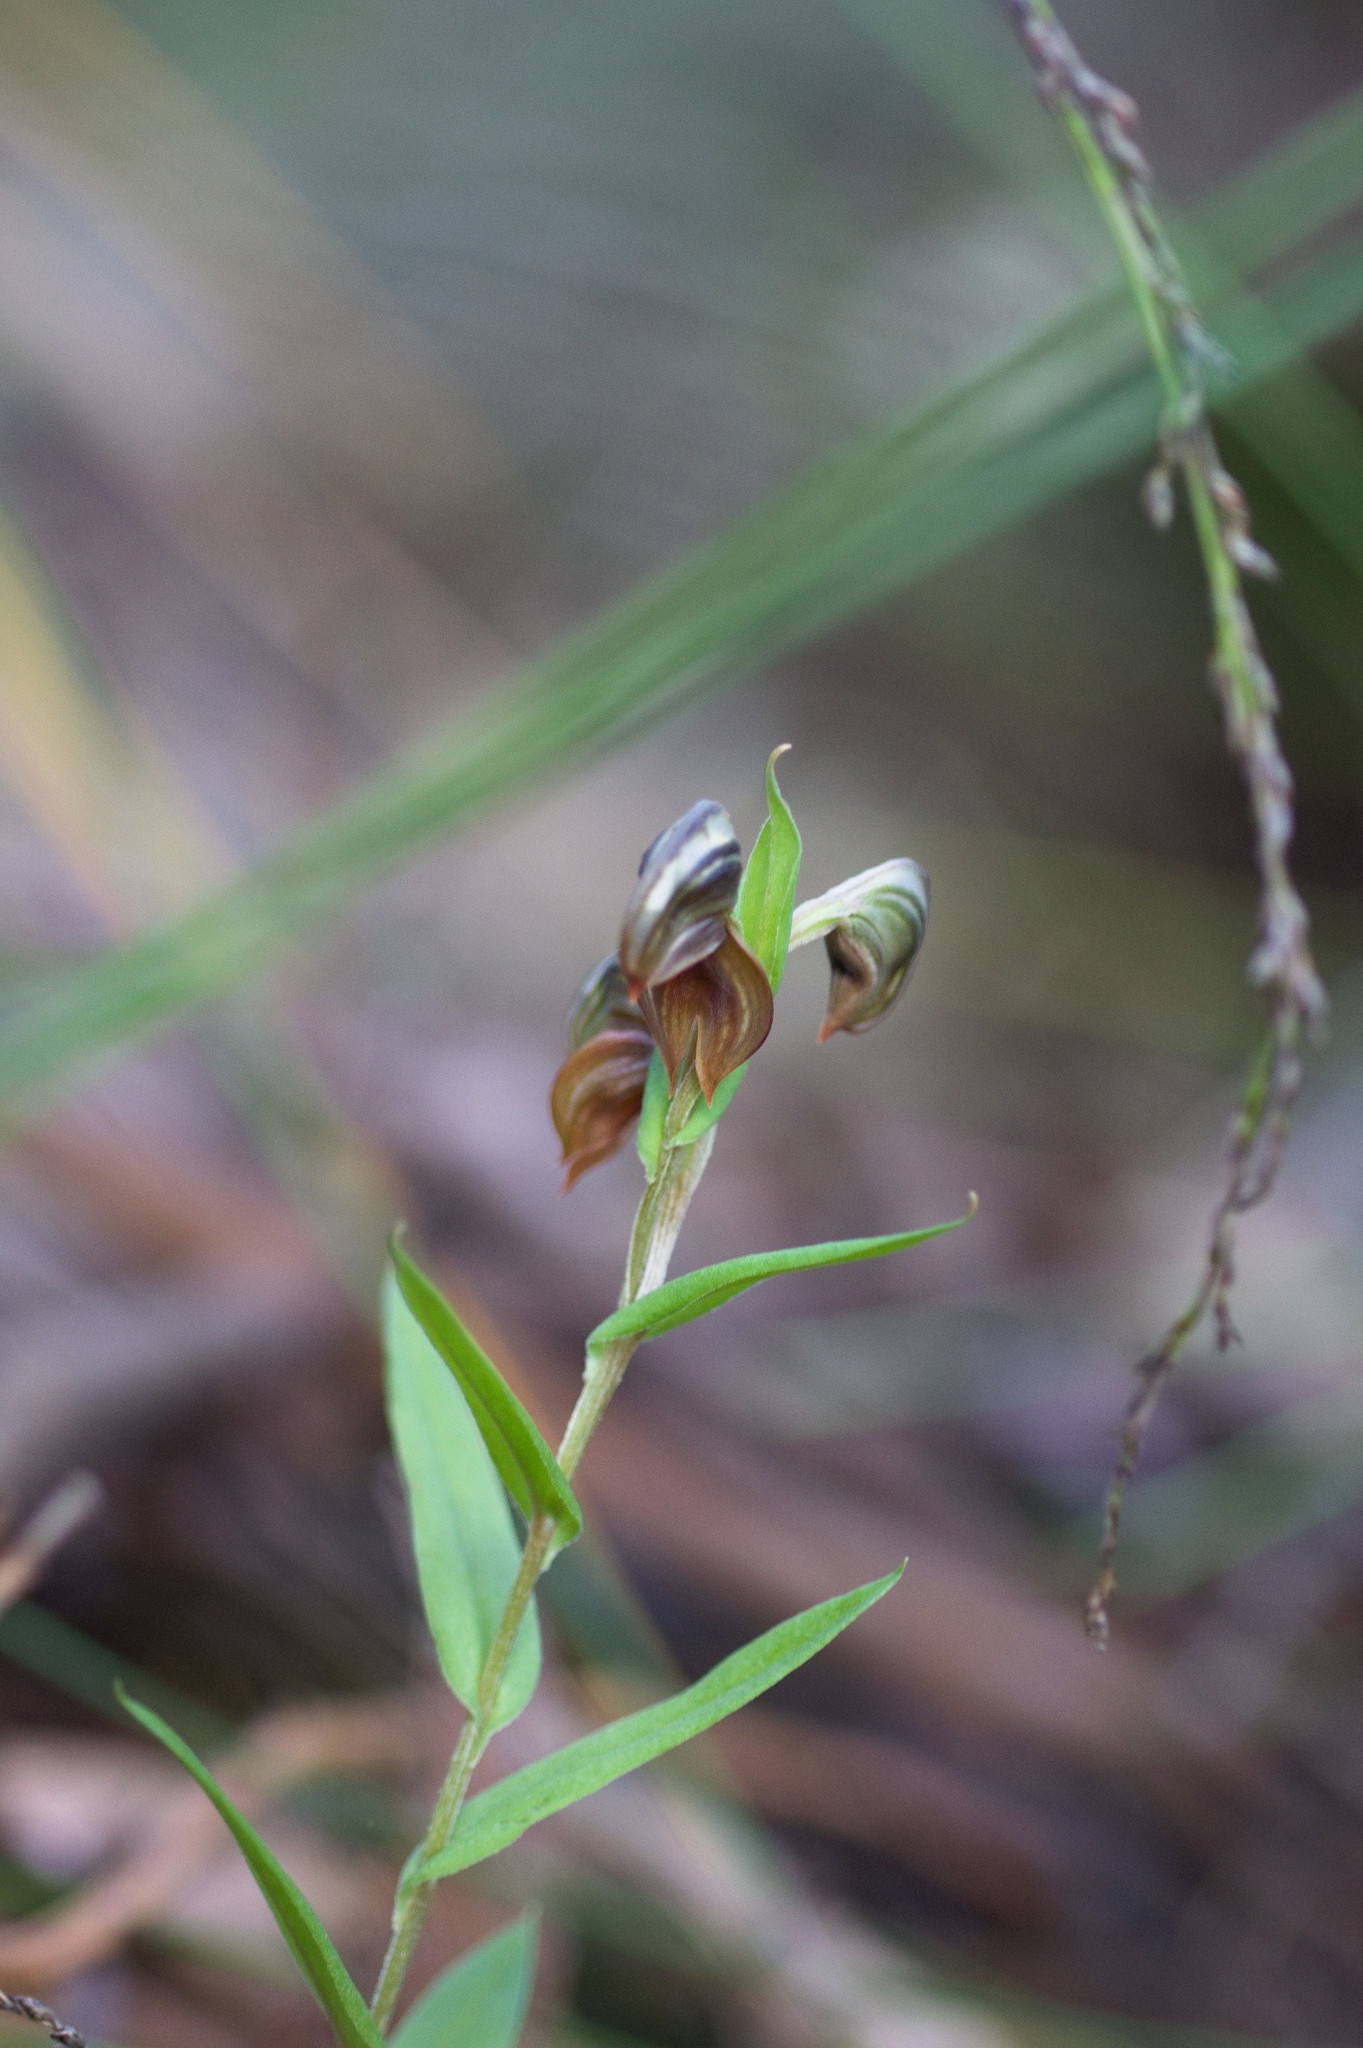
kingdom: Plantae
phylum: Tracheophyta
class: Liliopsida
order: Asparagales
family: Orchidaceae
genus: Pterostylis
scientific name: Pterostylis sanguinea
